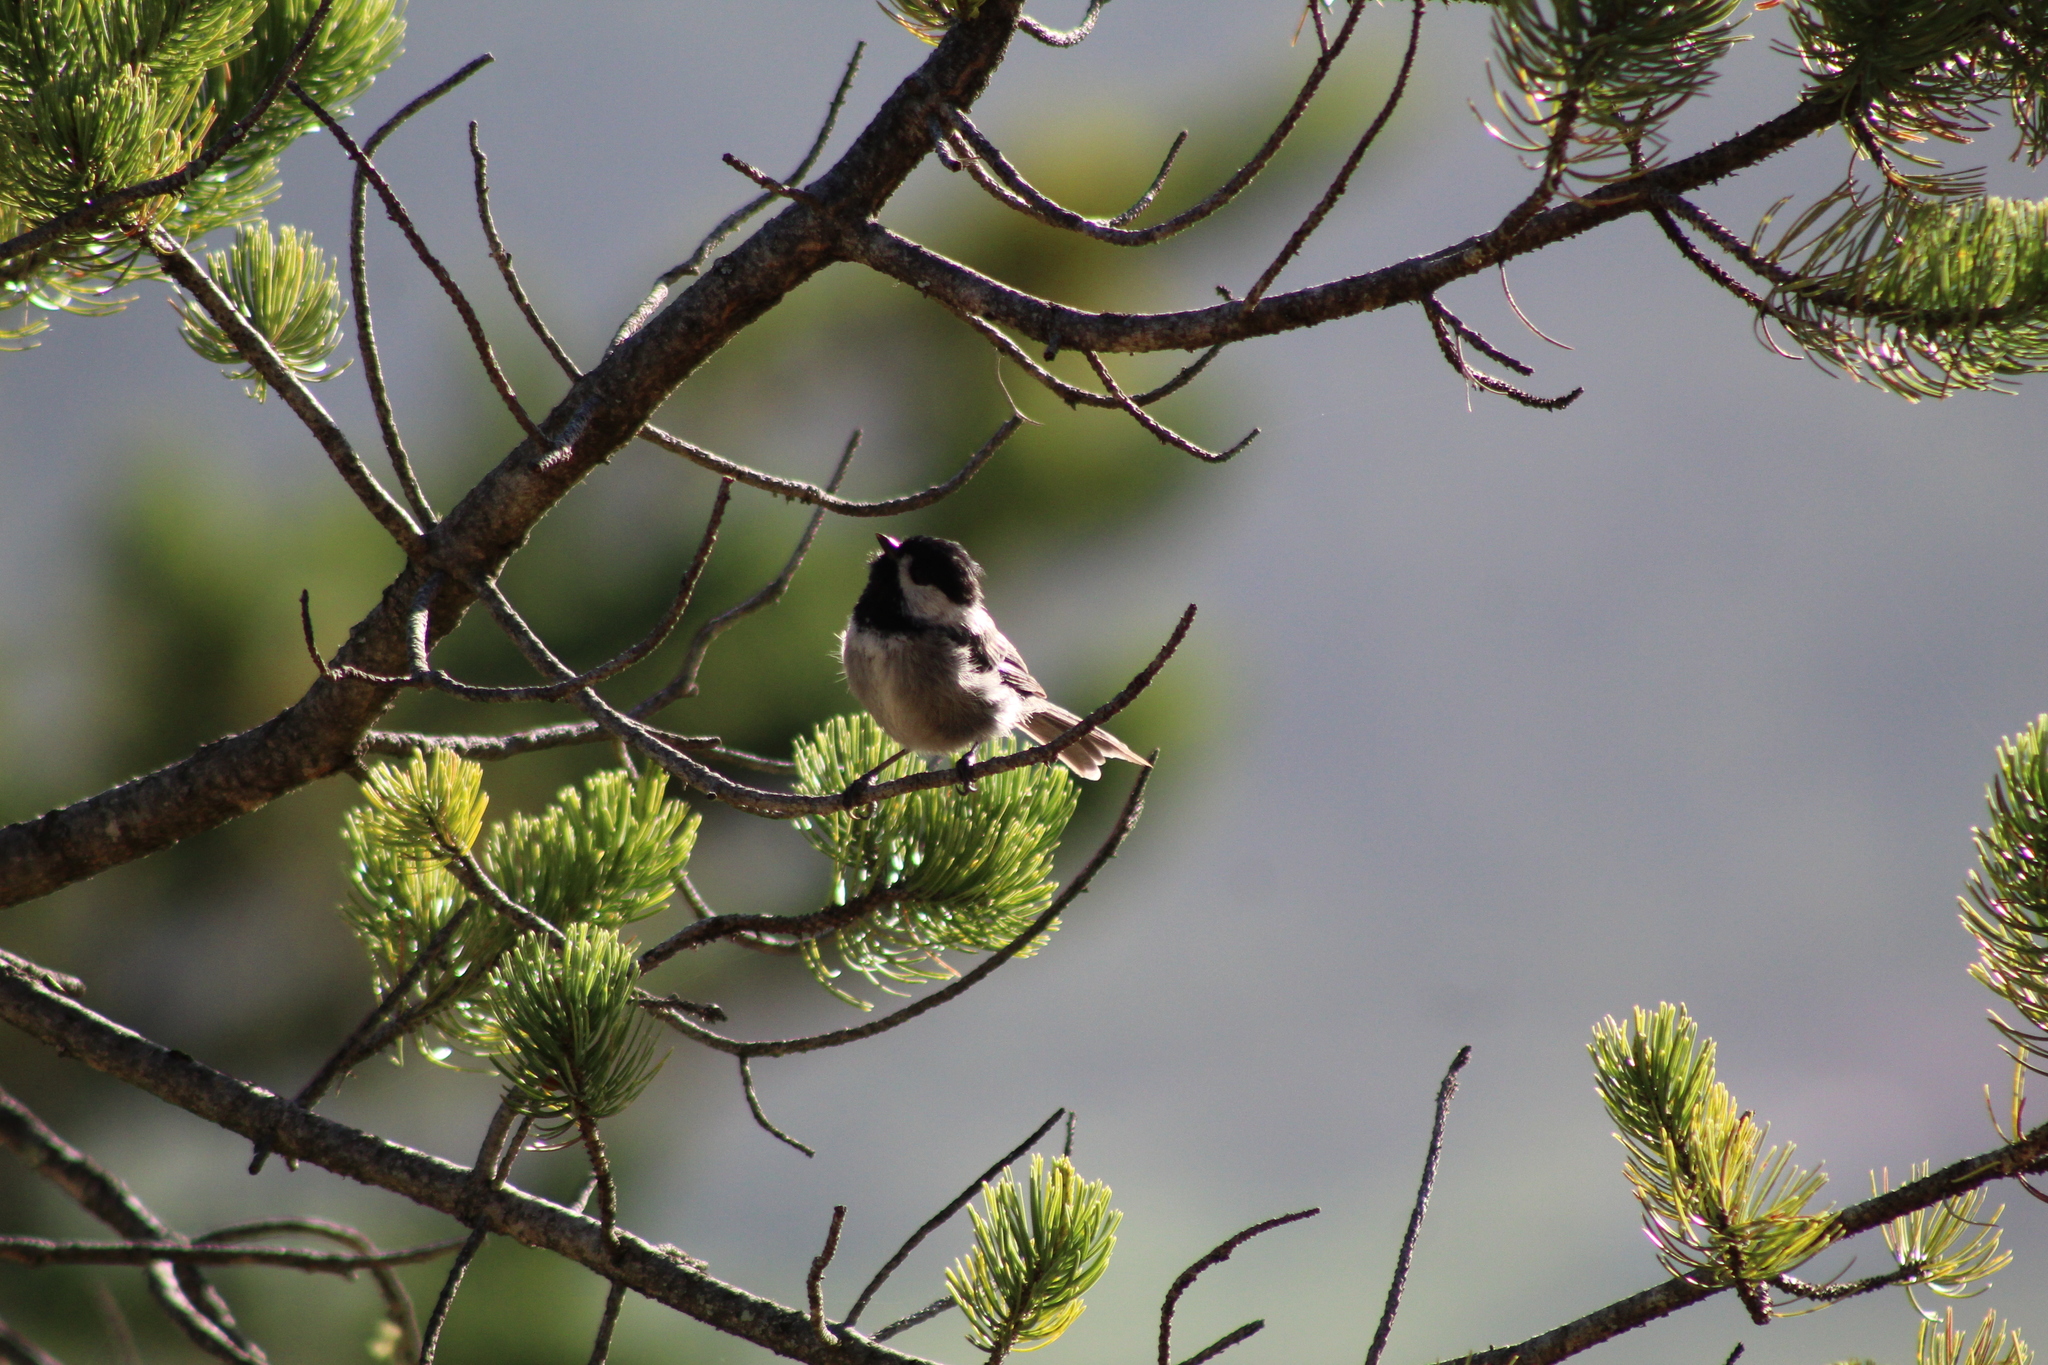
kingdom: Animalia
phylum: Chordata
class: Aves
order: Passeriformes
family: Paridae
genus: Poecile
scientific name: Poecile sclateri
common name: Mexican chickadee
